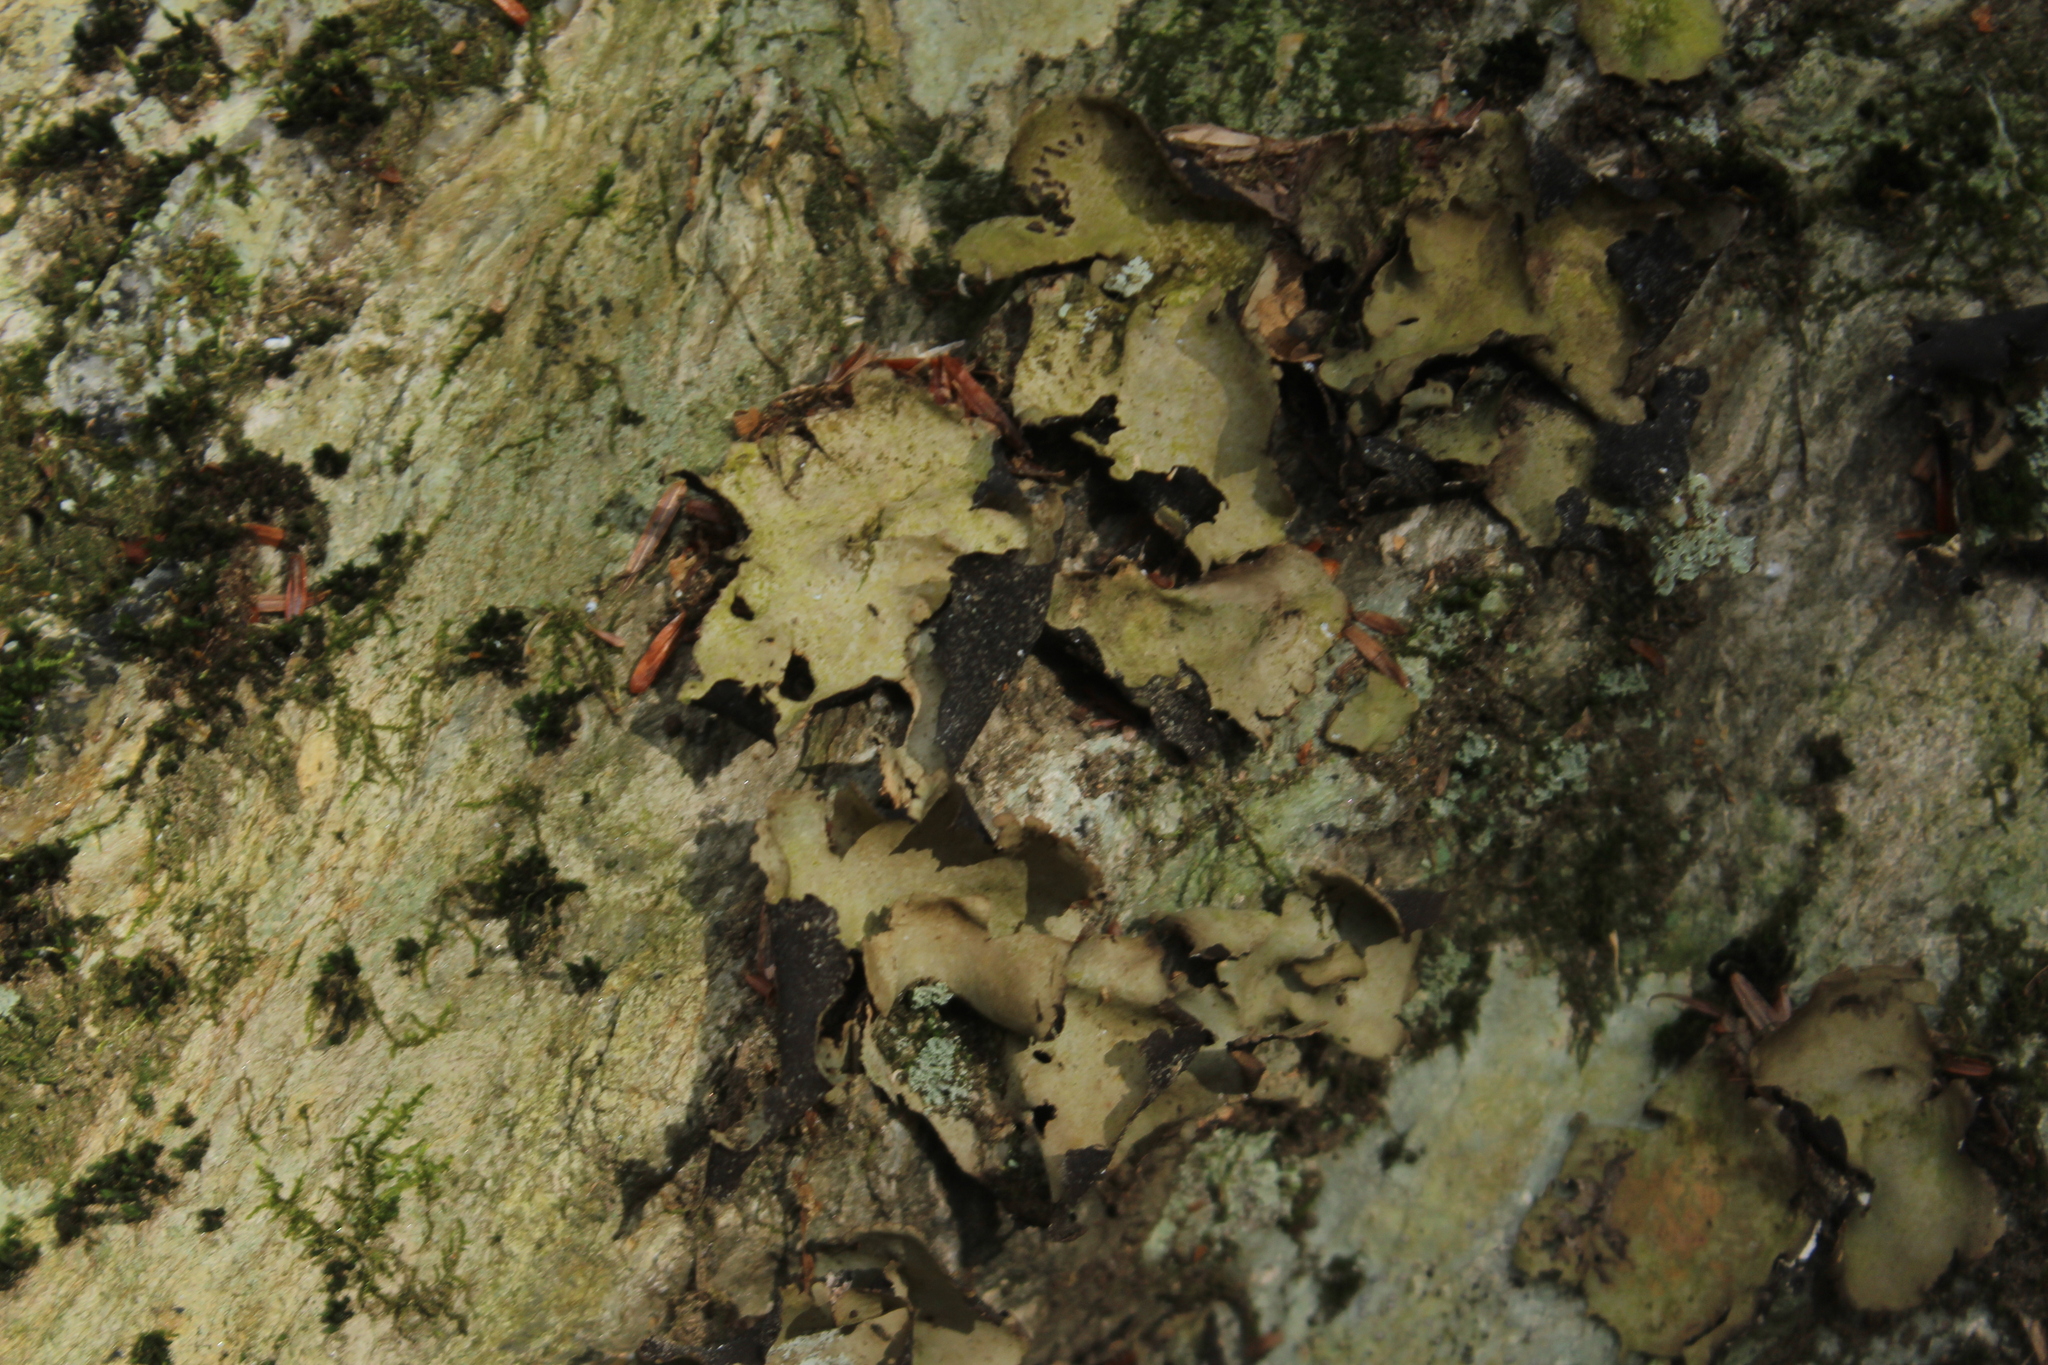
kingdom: Fungi
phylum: Ascomycota
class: Lecanoromycetes
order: Umbilicariales
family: Umbilicariaceae
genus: Umbilicaria
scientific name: Umbilicaria mammulata
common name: Smooth rock tripe
